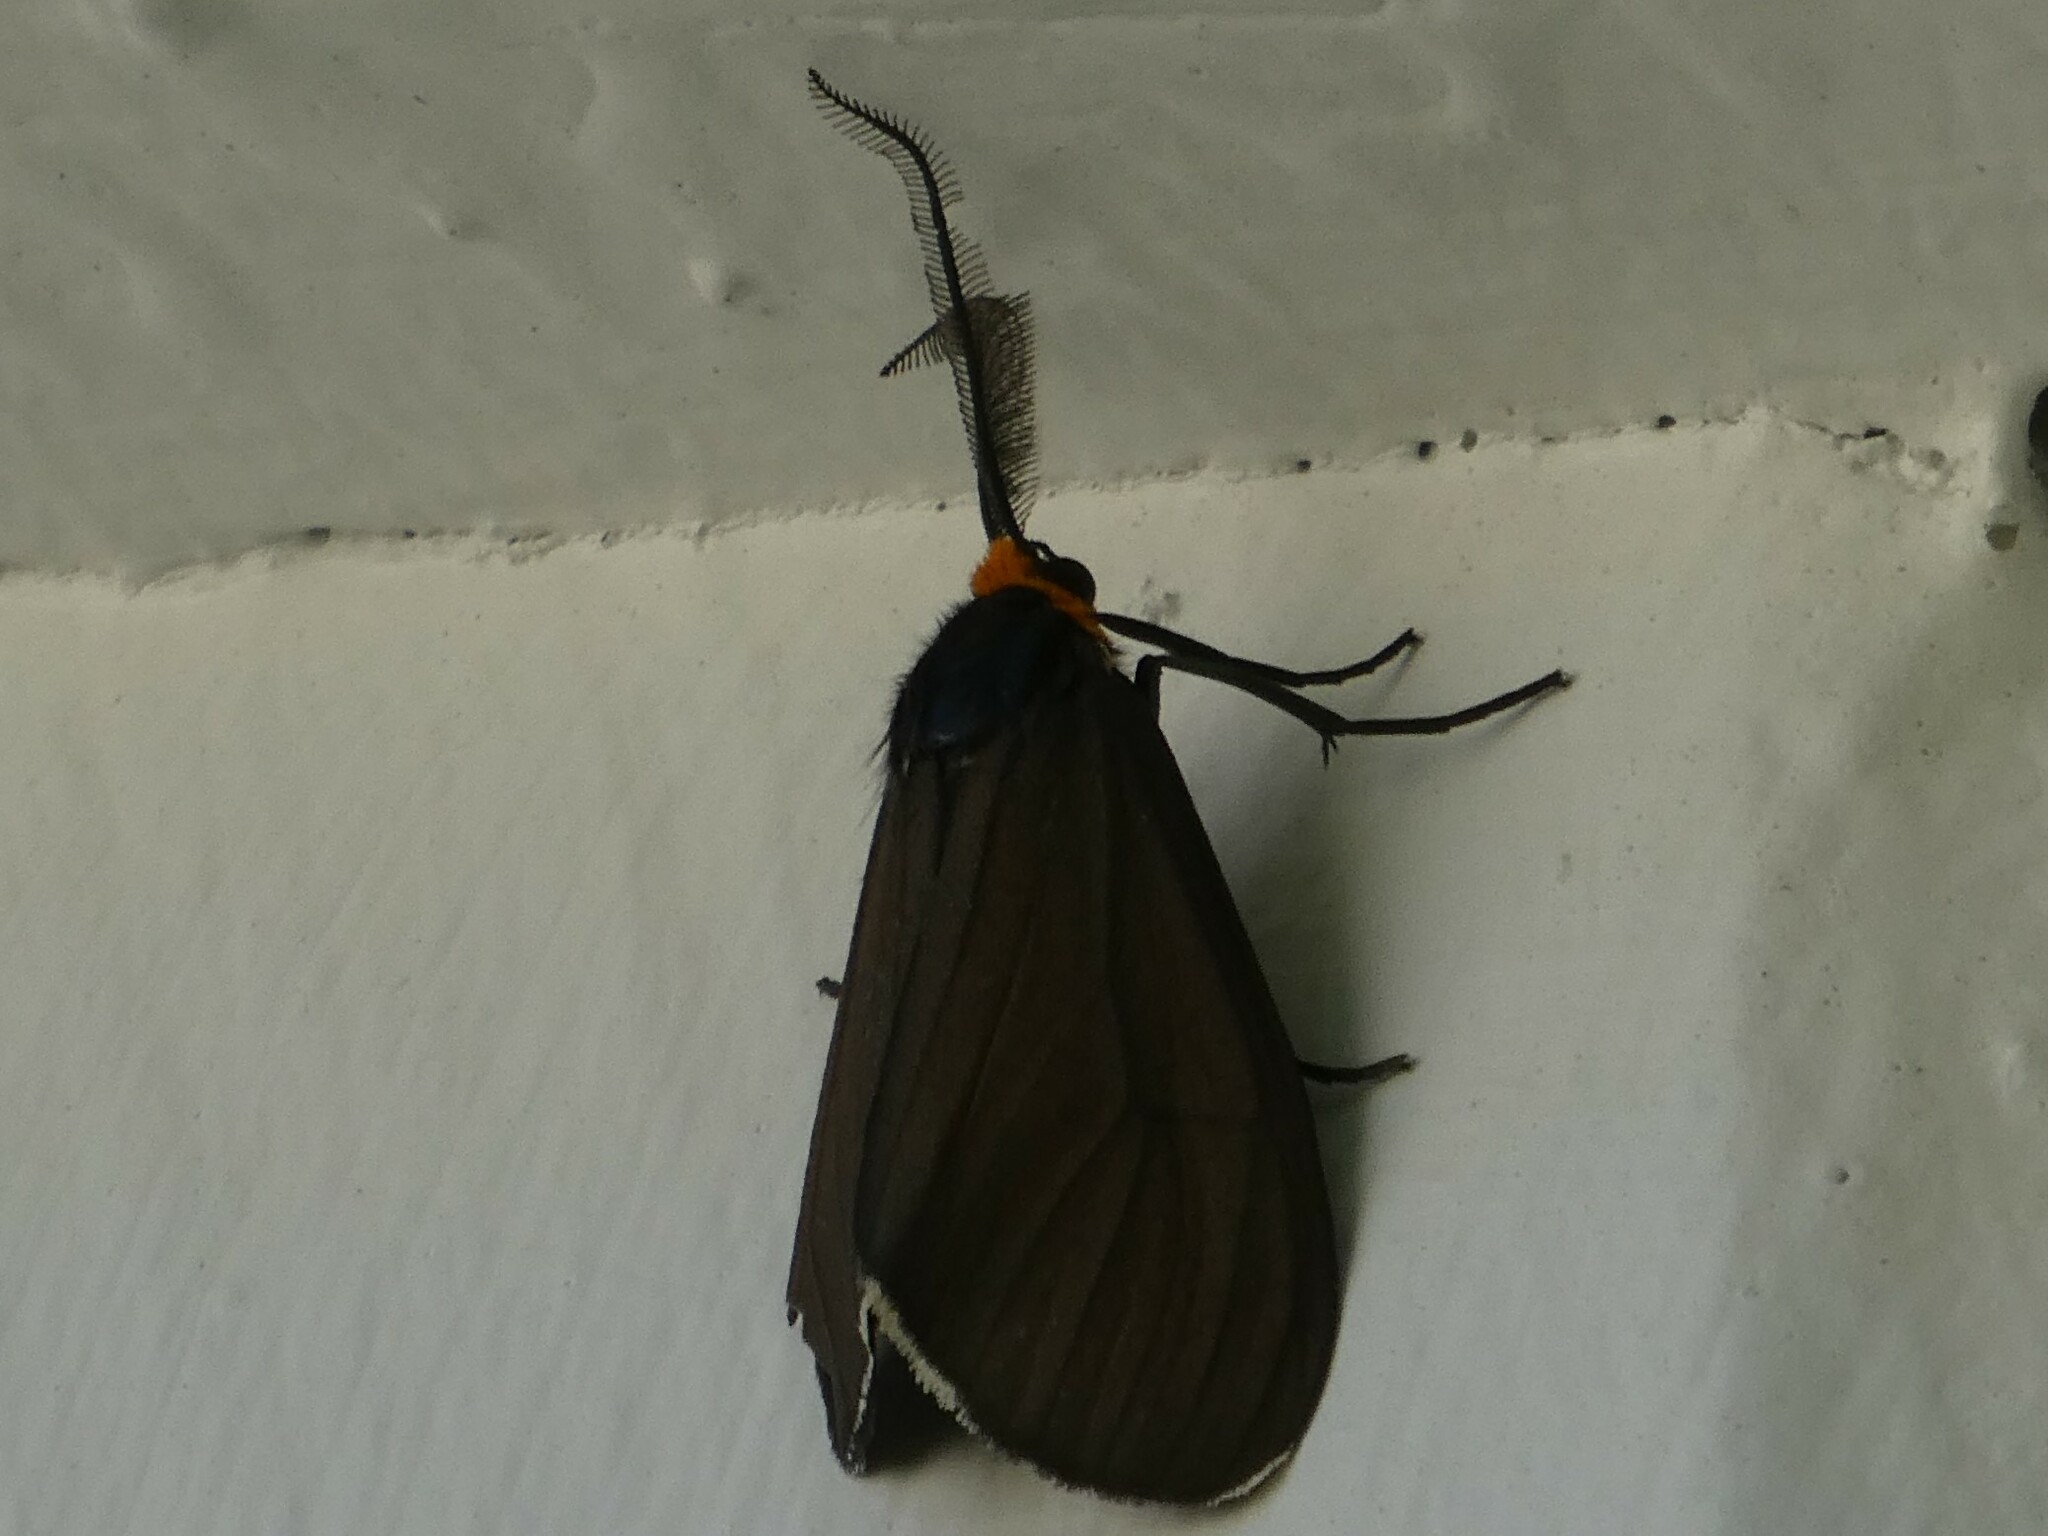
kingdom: Animalia
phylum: Arthropoda
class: Insecta
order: Lepidoptera
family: Erebidae
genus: Ctenucha
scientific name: Ctenucha virginica
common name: Virginia ctenucha moth
